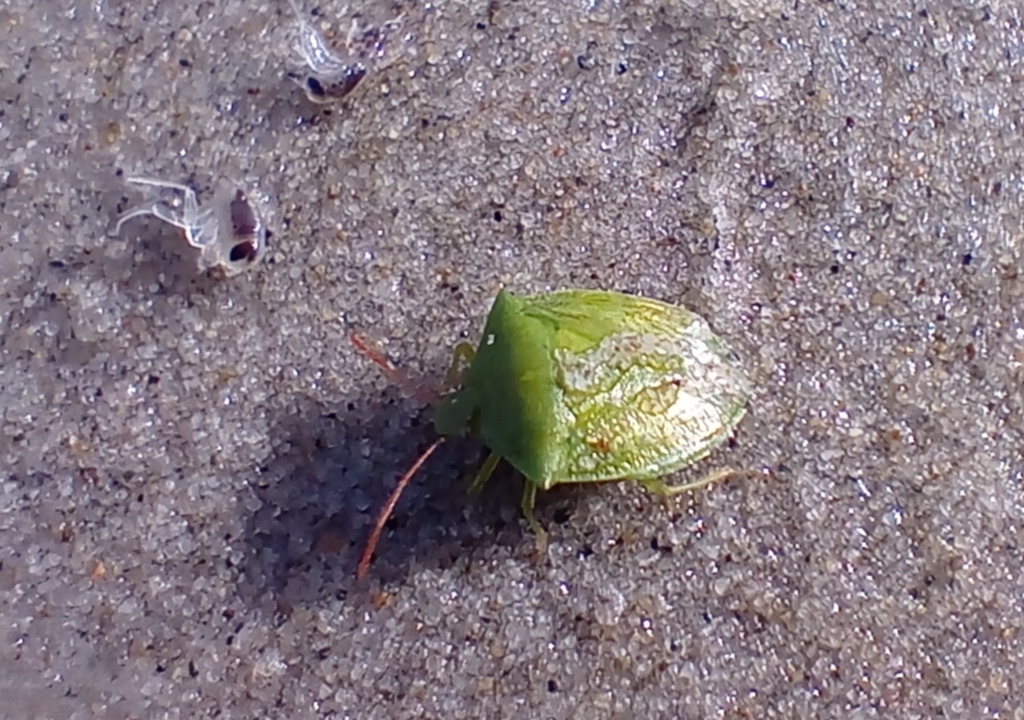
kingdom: Animalia
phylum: Arthropoda
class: Insecta
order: Hemiptera
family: Pentatomidae
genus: Cuspicona
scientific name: Cuspicona simplex
